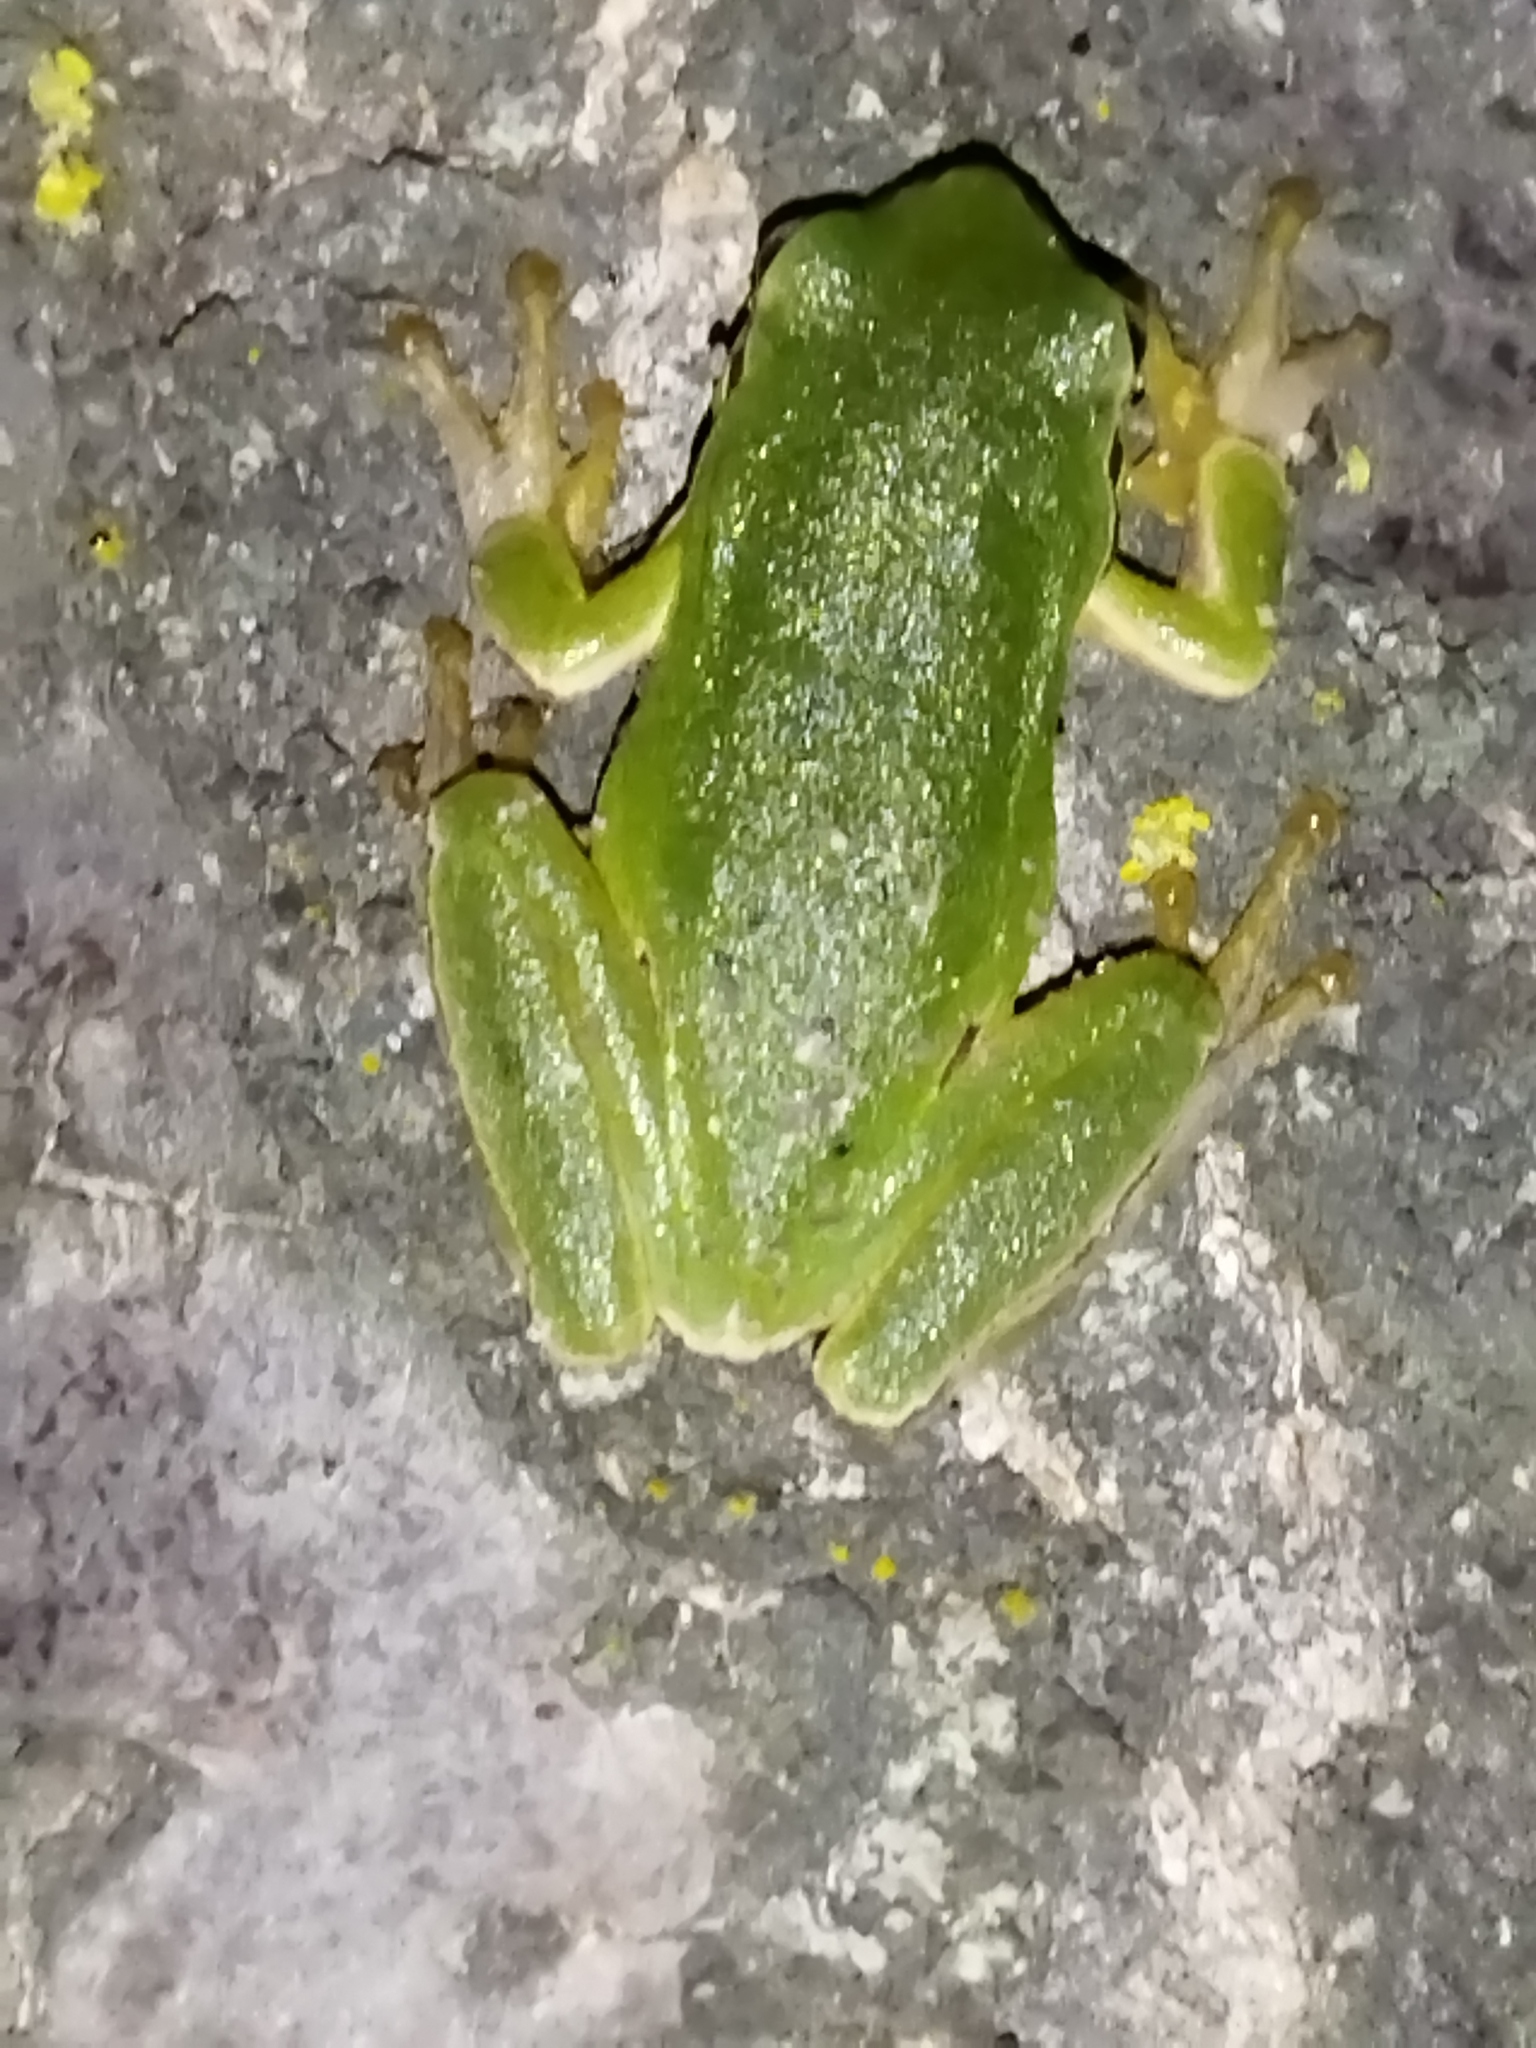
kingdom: Animalia
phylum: Chordata
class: Amphibia
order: Anura
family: Hylidae
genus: Hyla
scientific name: Hyla orientalis
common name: Caucasian treefrog
